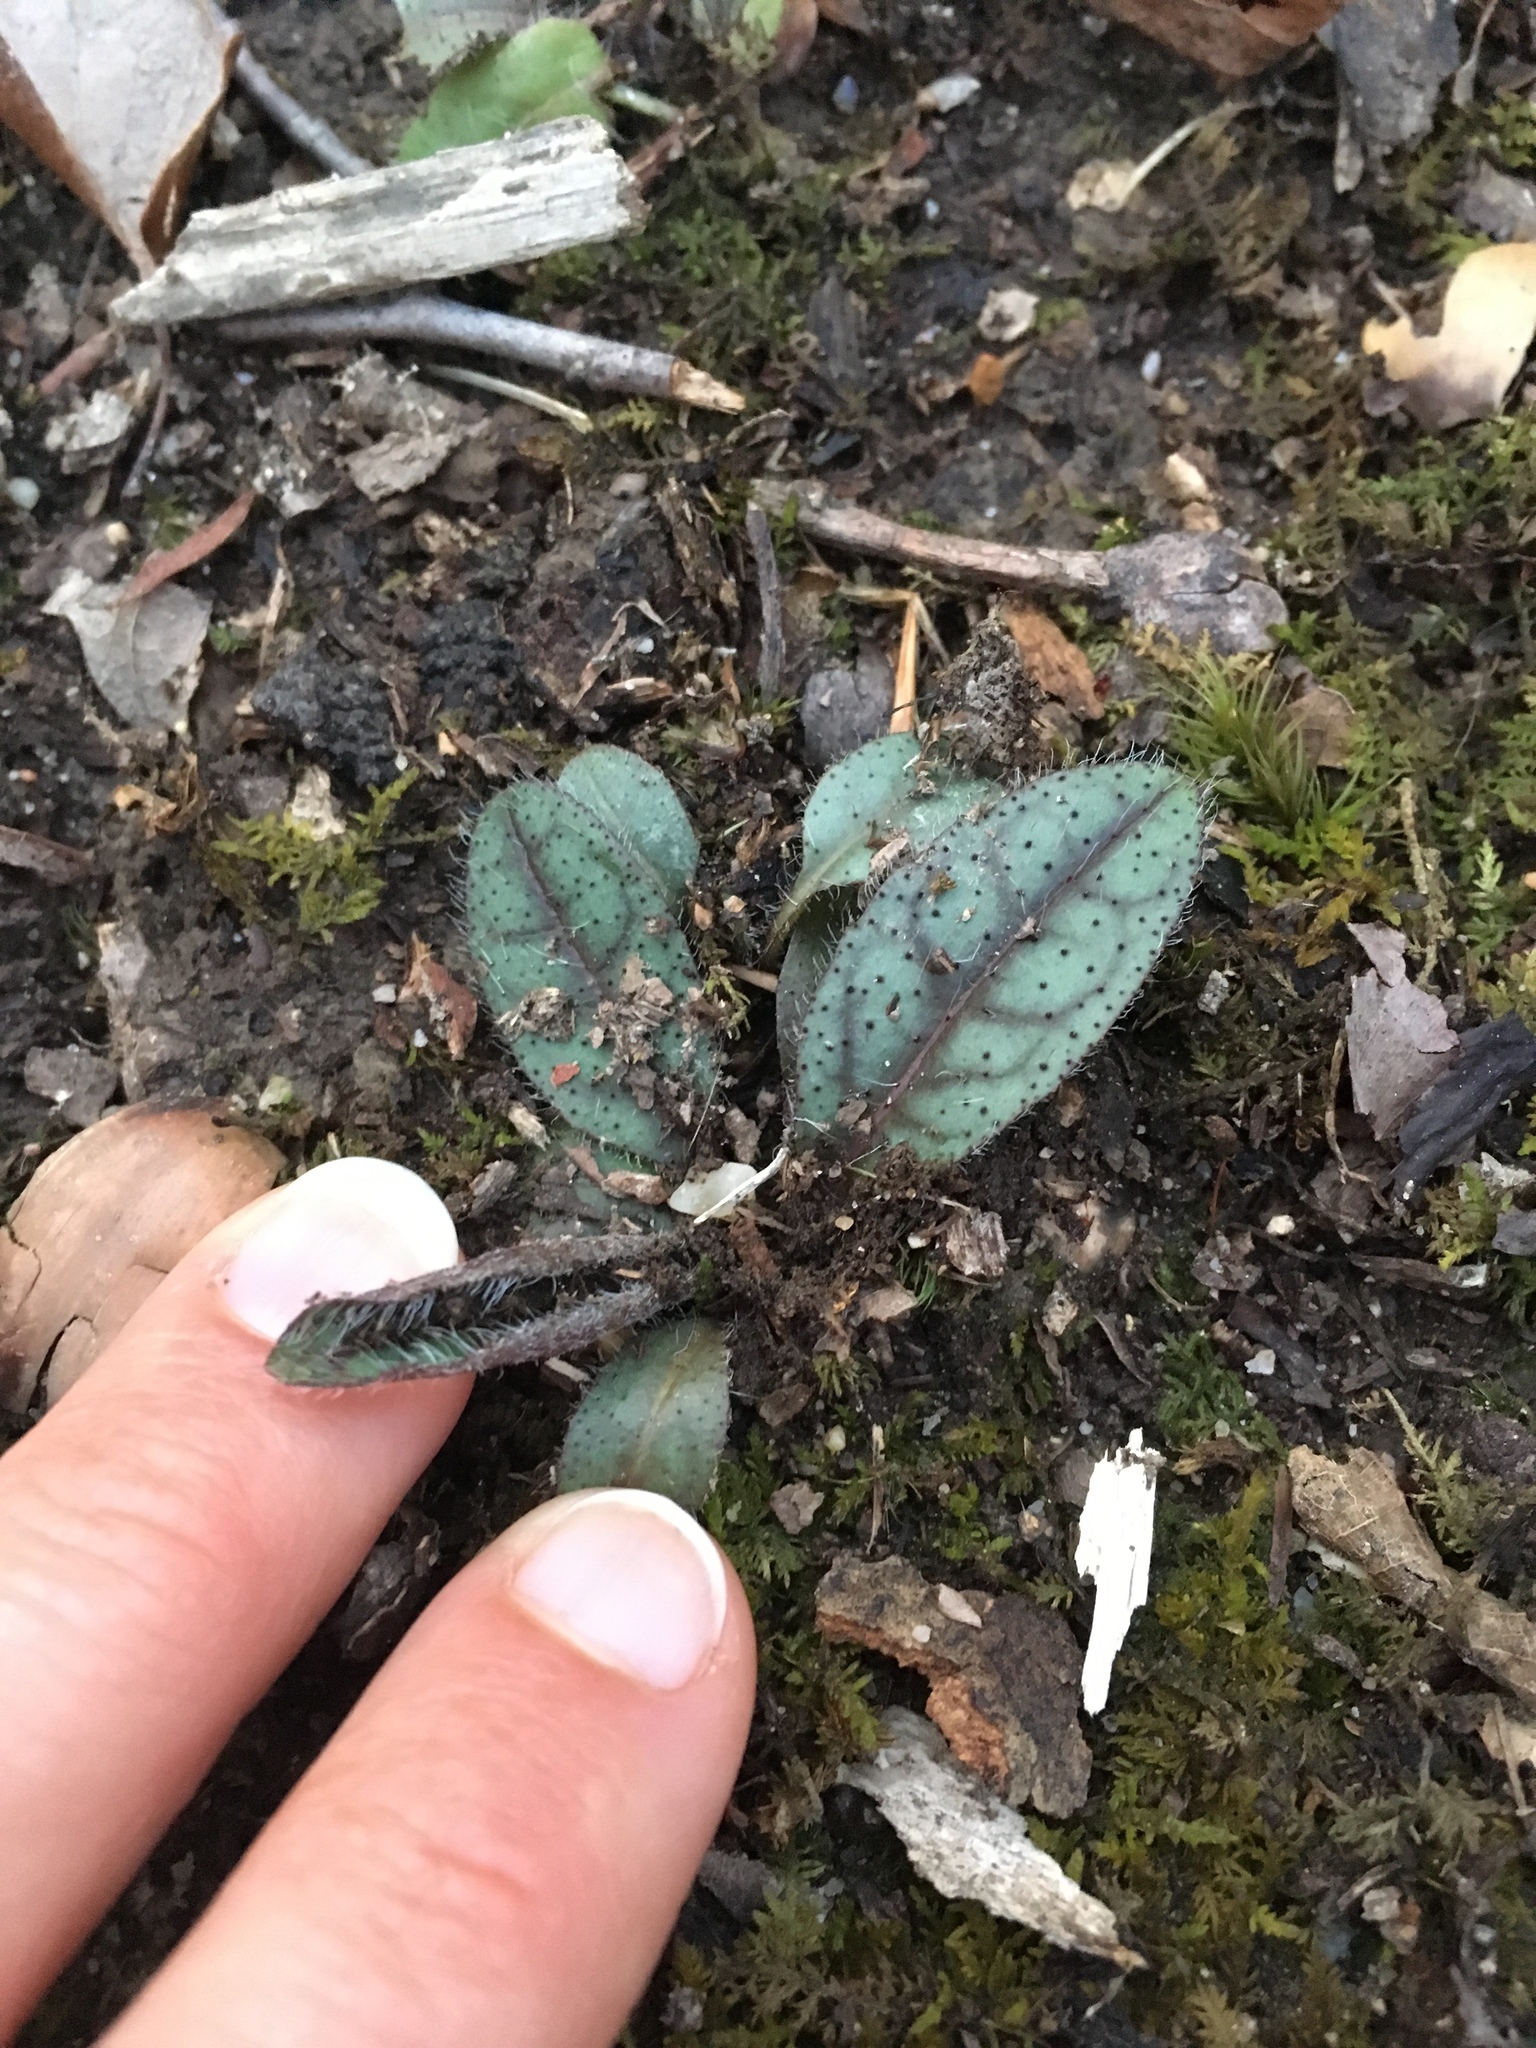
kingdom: Plantae
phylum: Tracheophyta
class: Magnoliopsida
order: Asterales
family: Asteraceae
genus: Hieracium
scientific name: Hieracium venosum
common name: Rattlesnake hawkweed
